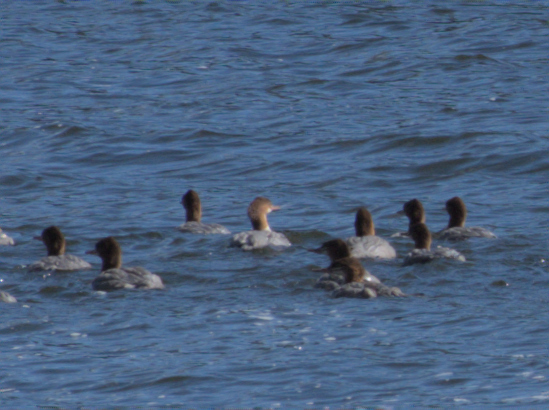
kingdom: Animalia
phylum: Chordata
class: Aves
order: Anseriformes
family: Anatidae
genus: Mergus
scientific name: Mergus merganser
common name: Common merganser
